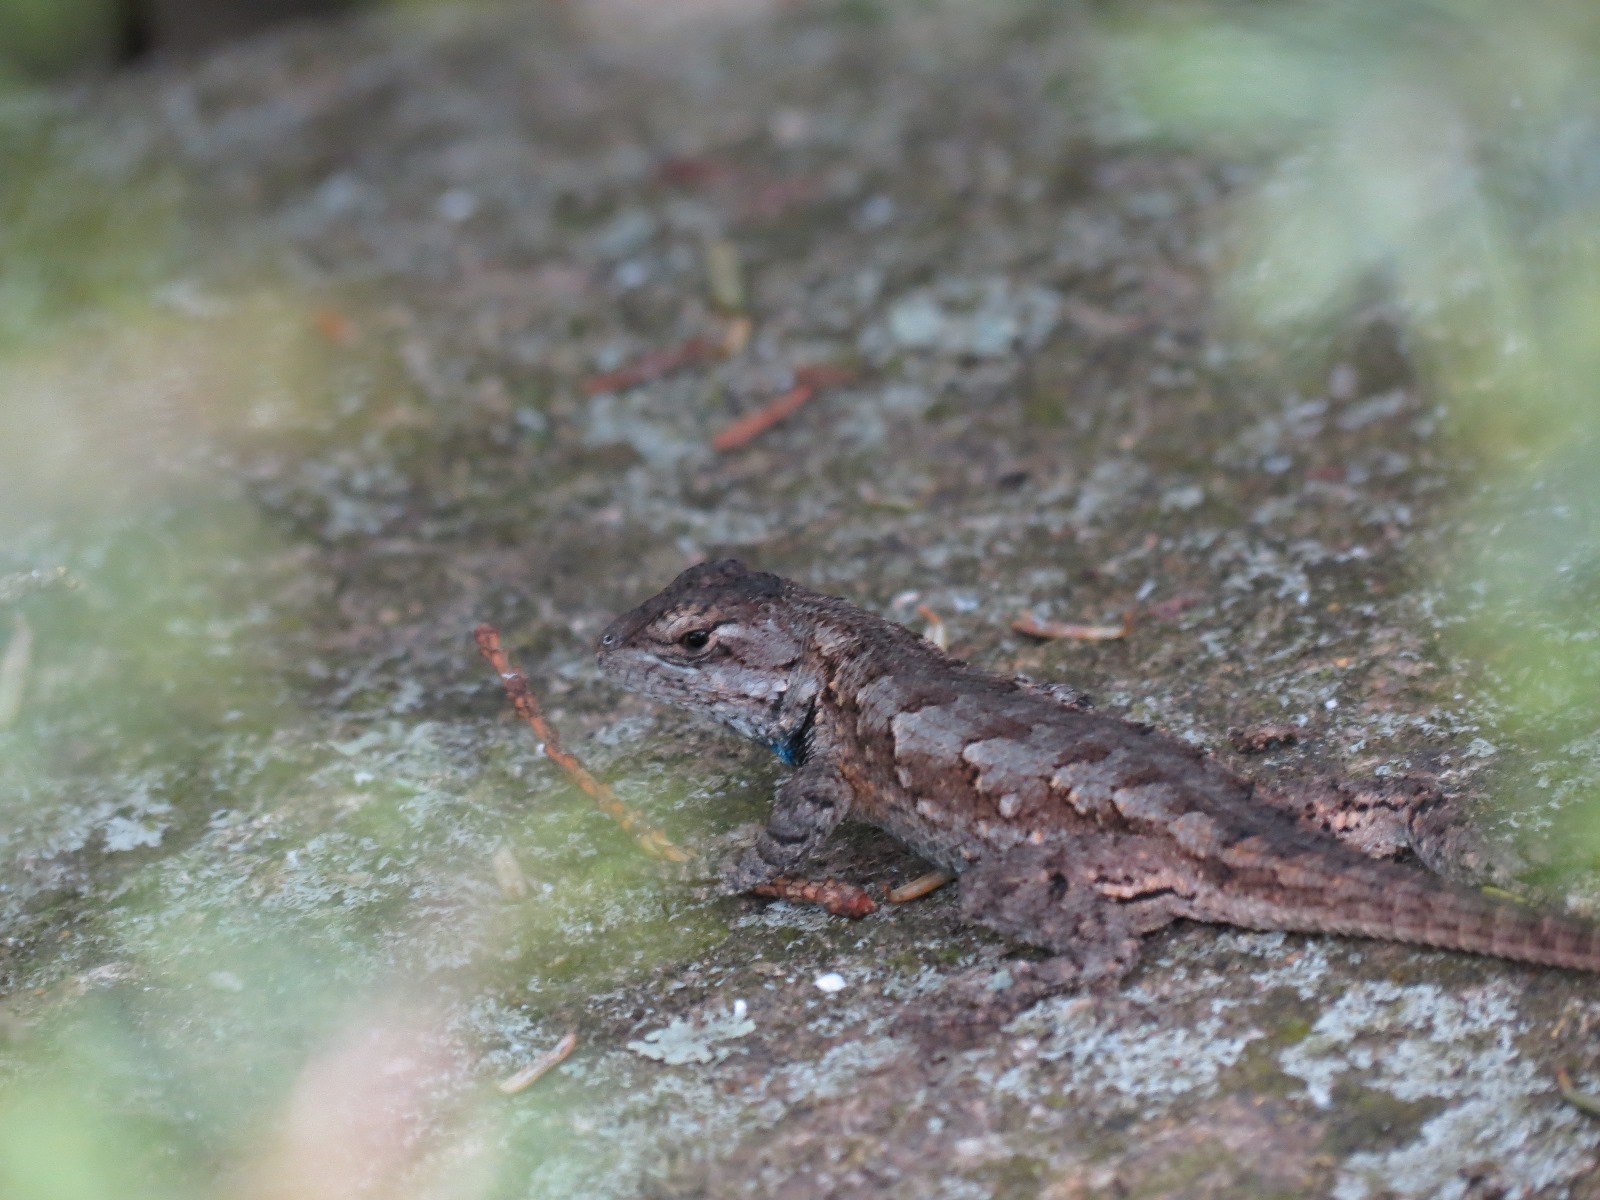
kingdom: Animalia
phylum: Chordata
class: Squamata
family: Phrynosomatidae
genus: Sceloporus
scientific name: Sceloporus undulatus
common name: Eastern fence lizard
